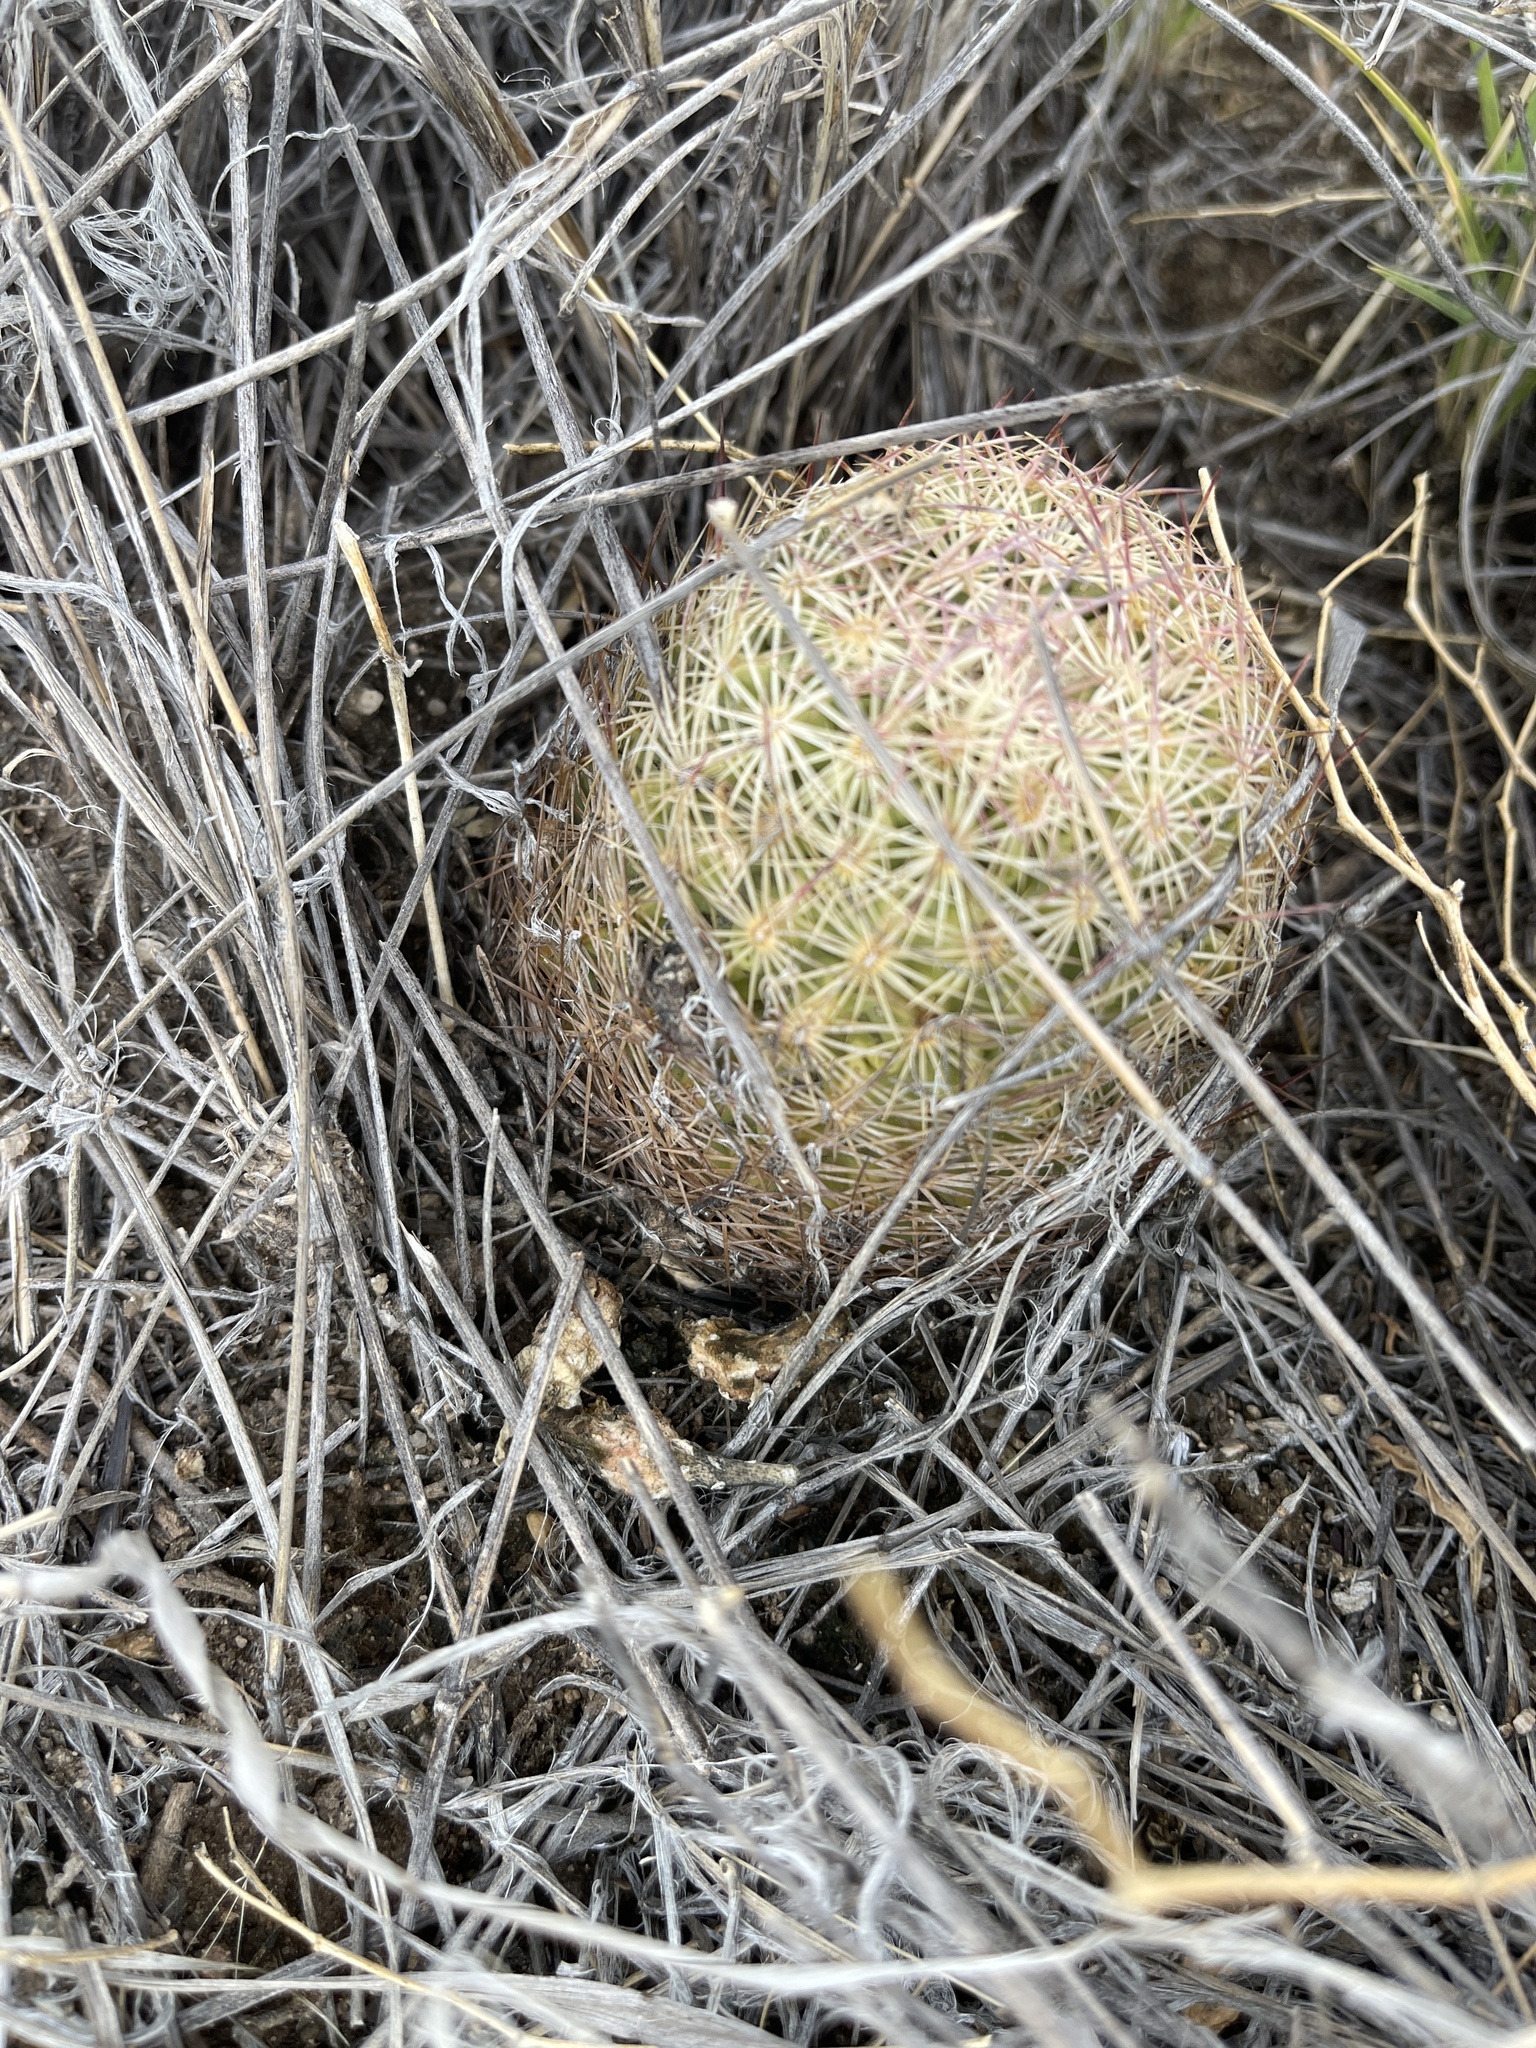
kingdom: Plantae
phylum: Tracheophyta
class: Magnoliopsida
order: Caryophyllales
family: Cactaceae
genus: Sclerocactus
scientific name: Sclerocactus intertextus
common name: White fish-hook cactus
